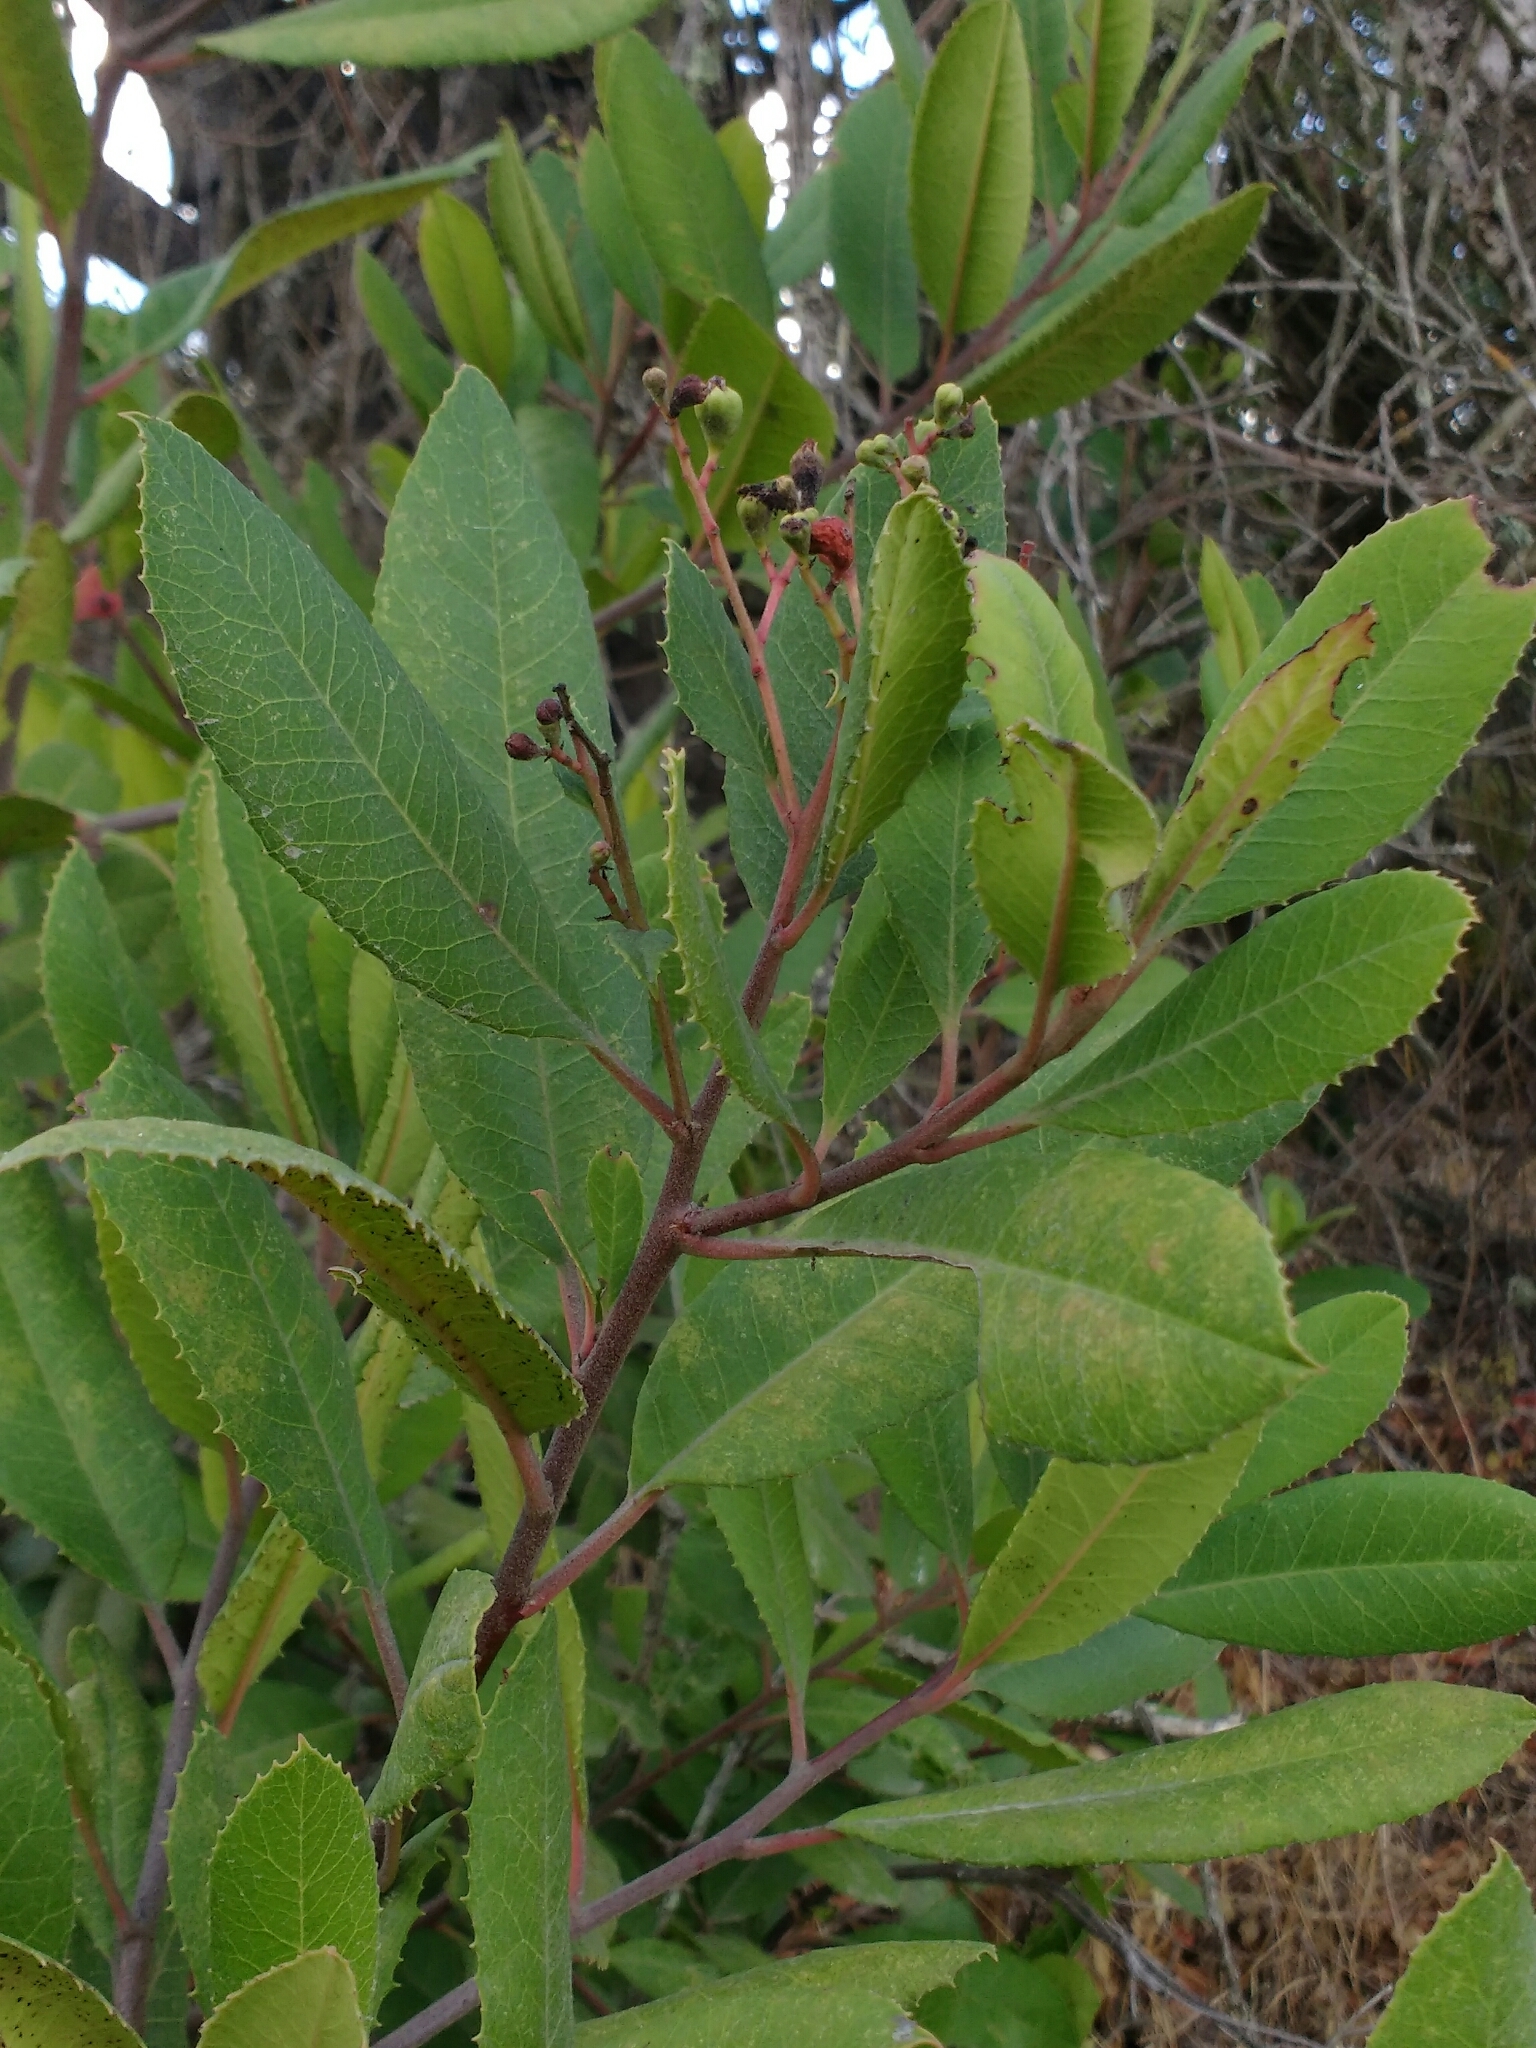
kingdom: Plantae
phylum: Tracheophyta
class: Magnoliopsida
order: Rosales
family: Rosaceae
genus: Heteromeles
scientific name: Heteromeles arbutifolia
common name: California-holly
